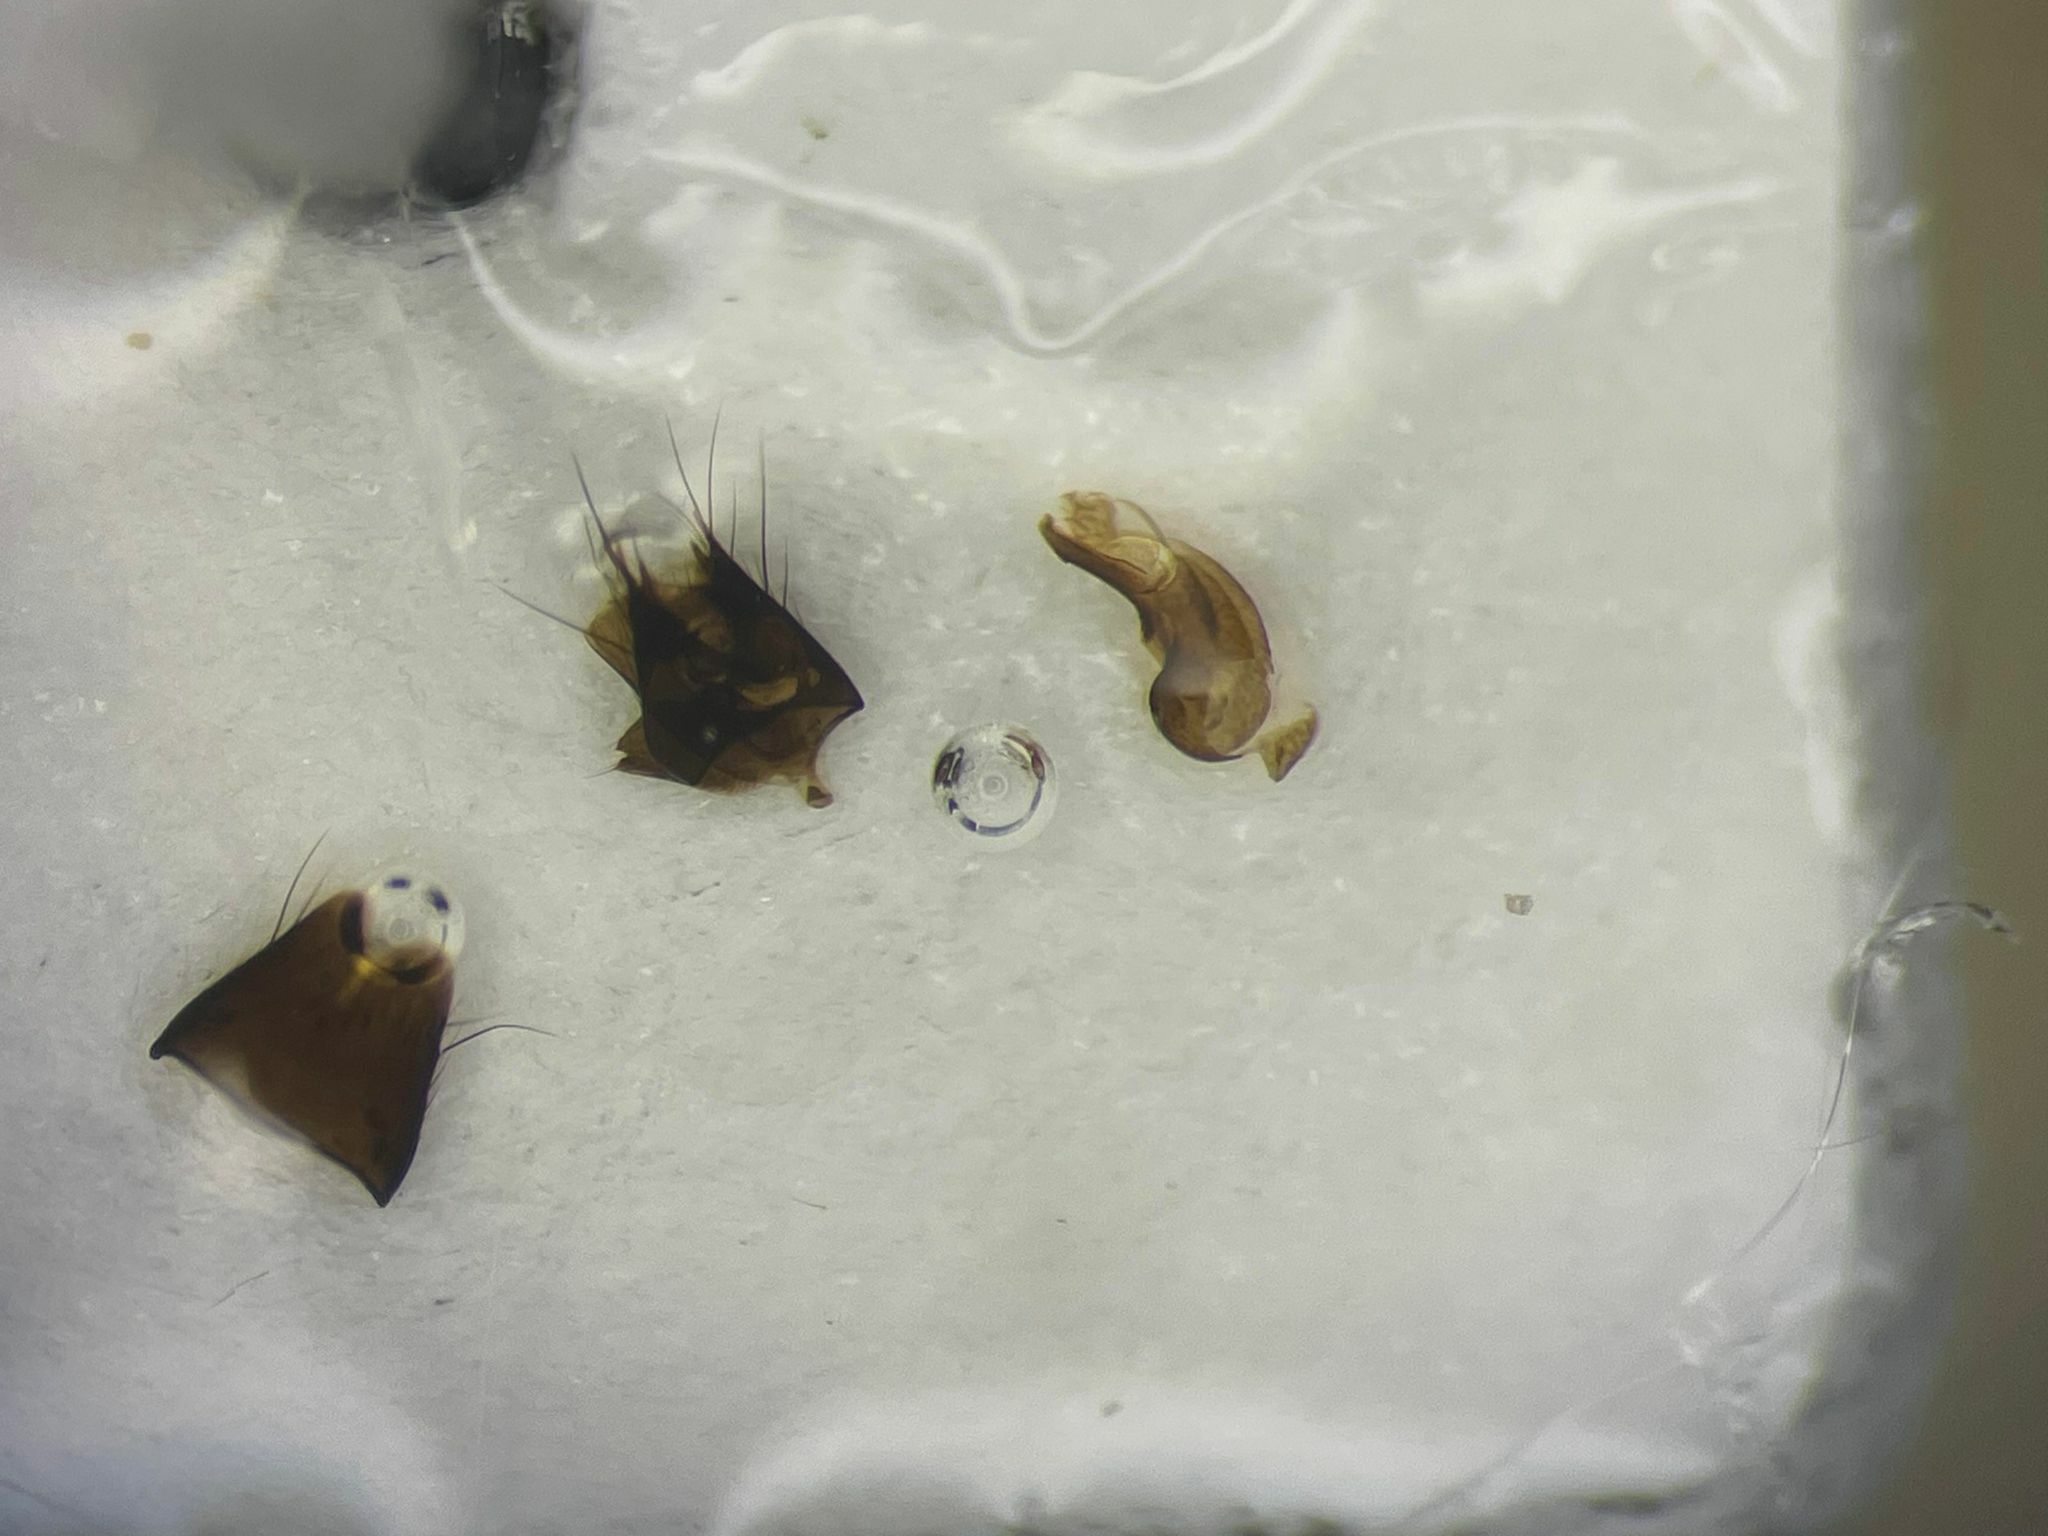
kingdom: Animalia
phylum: Arthropoda
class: Insecta
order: Coleoptera
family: Staphylinidae
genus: Astenus
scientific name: Astenus immaculatus
